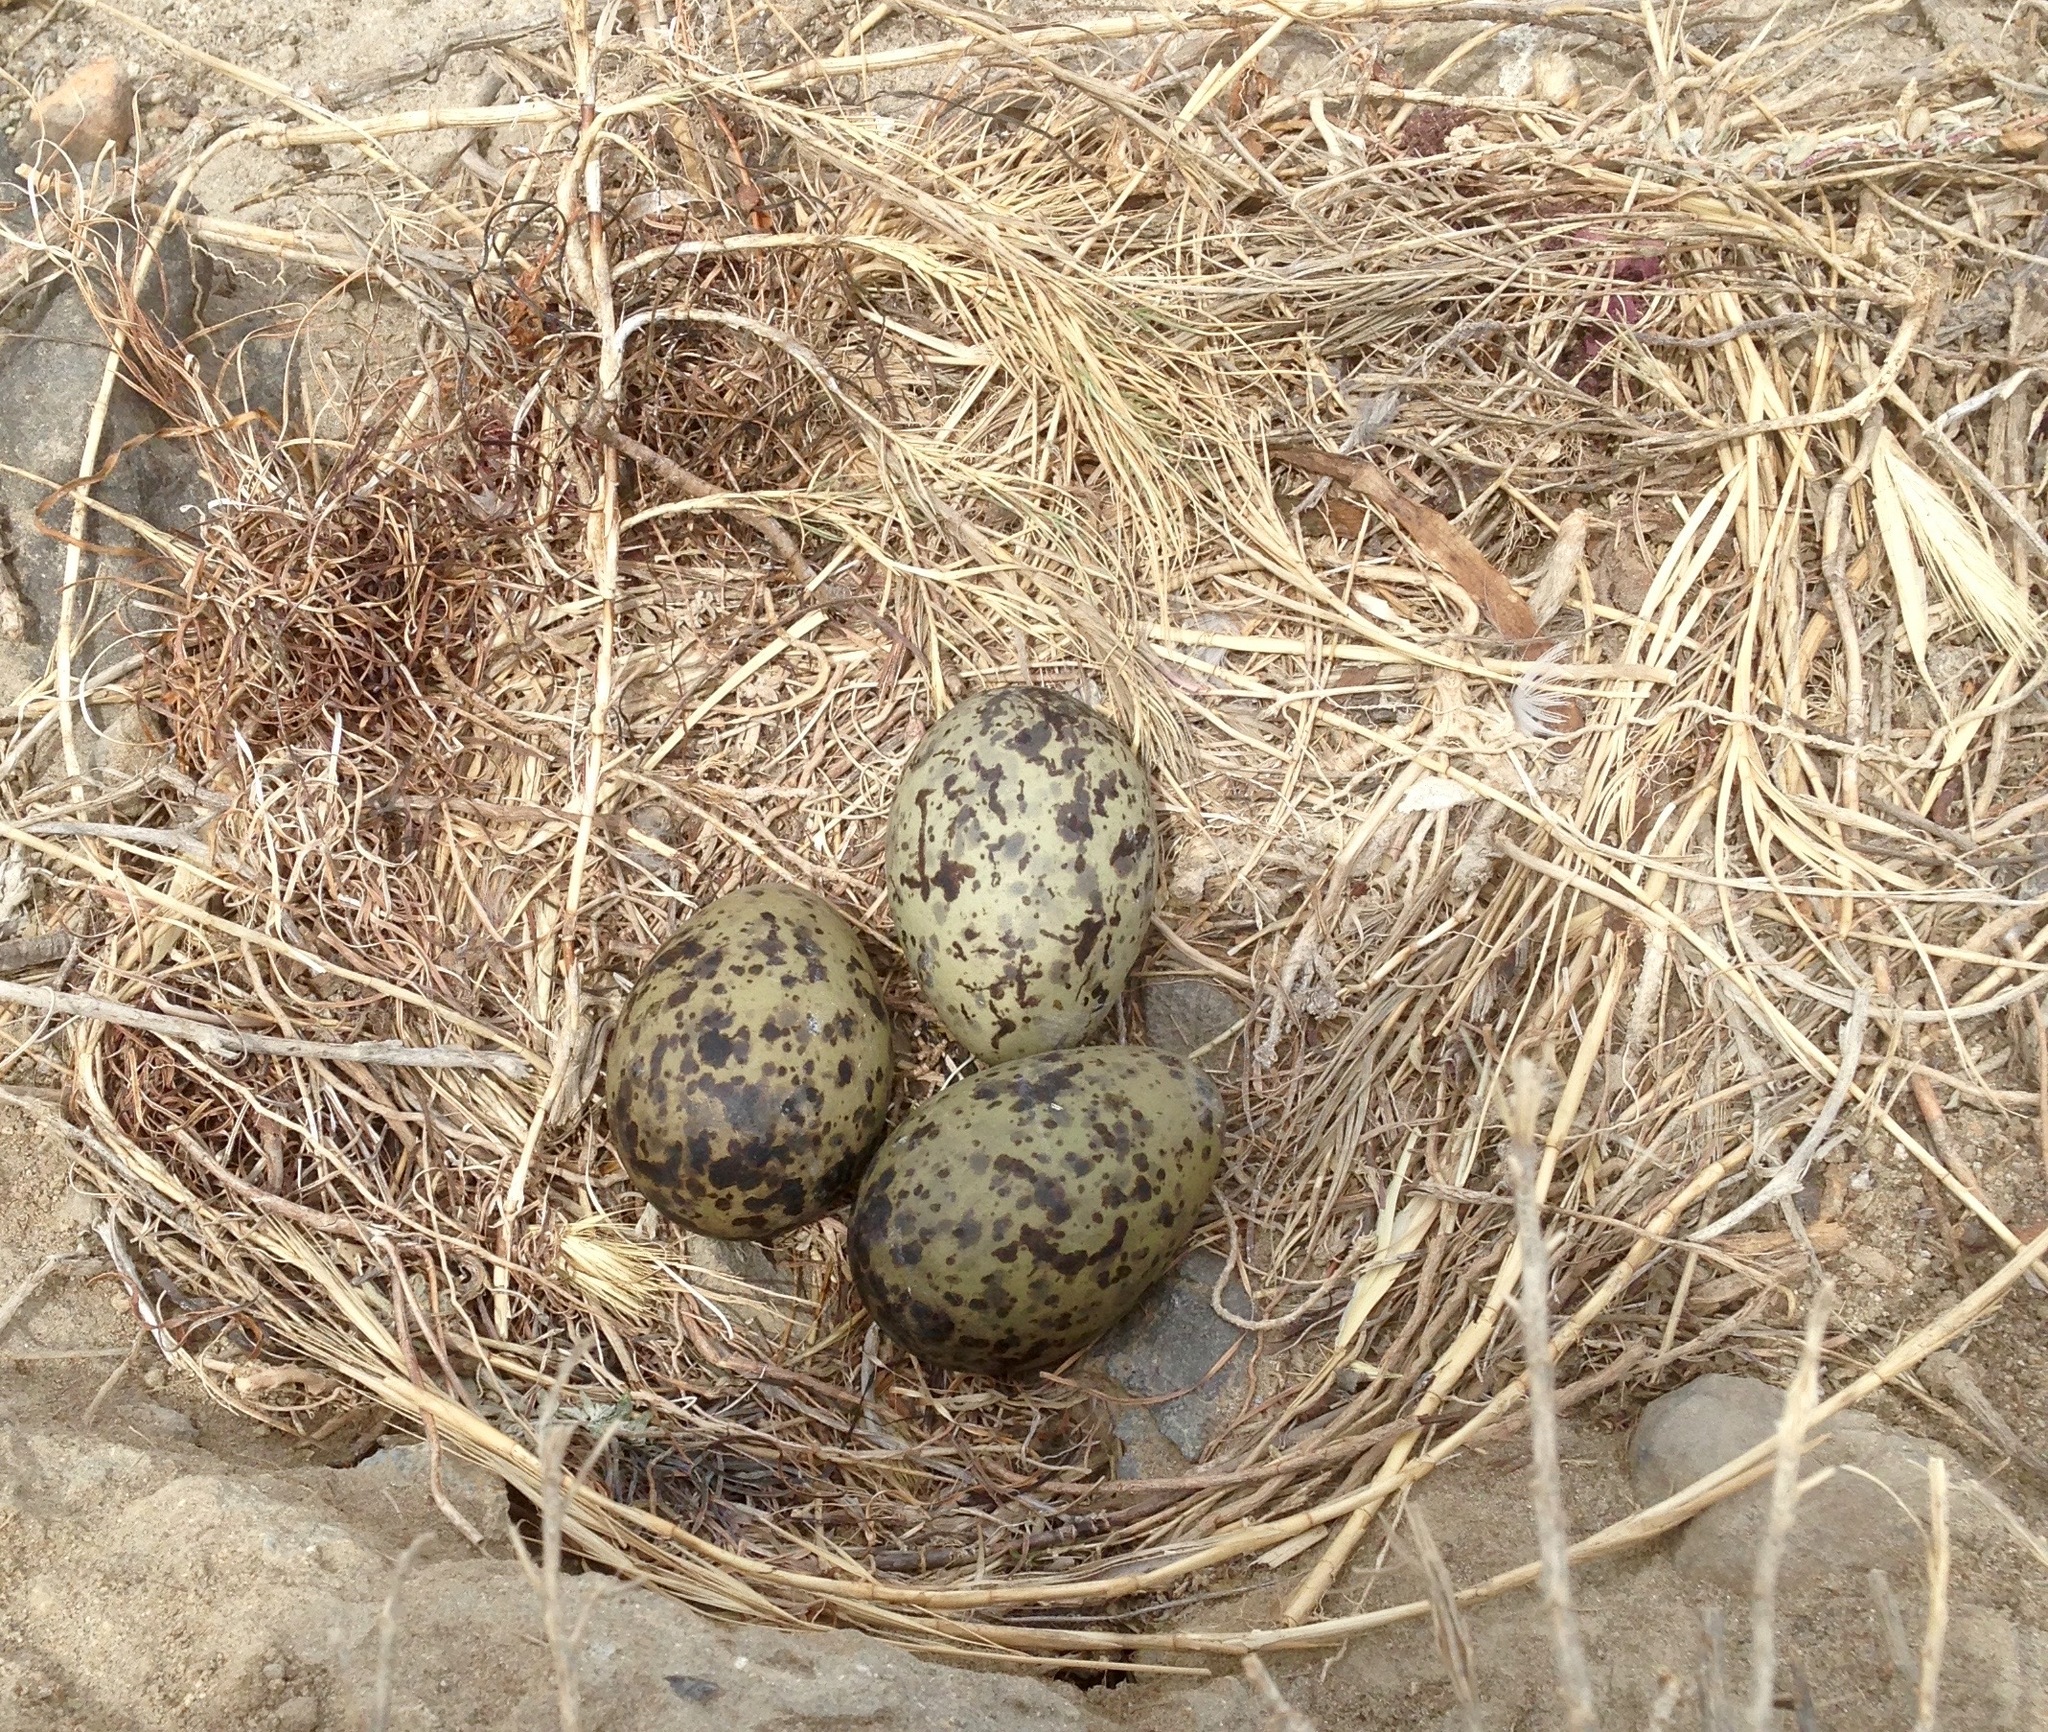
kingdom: Animalia
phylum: Chordata
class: Aves
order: Charadriiformes
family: Laridae
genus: Larus
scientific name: Larus occidentalis
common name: Western gull
